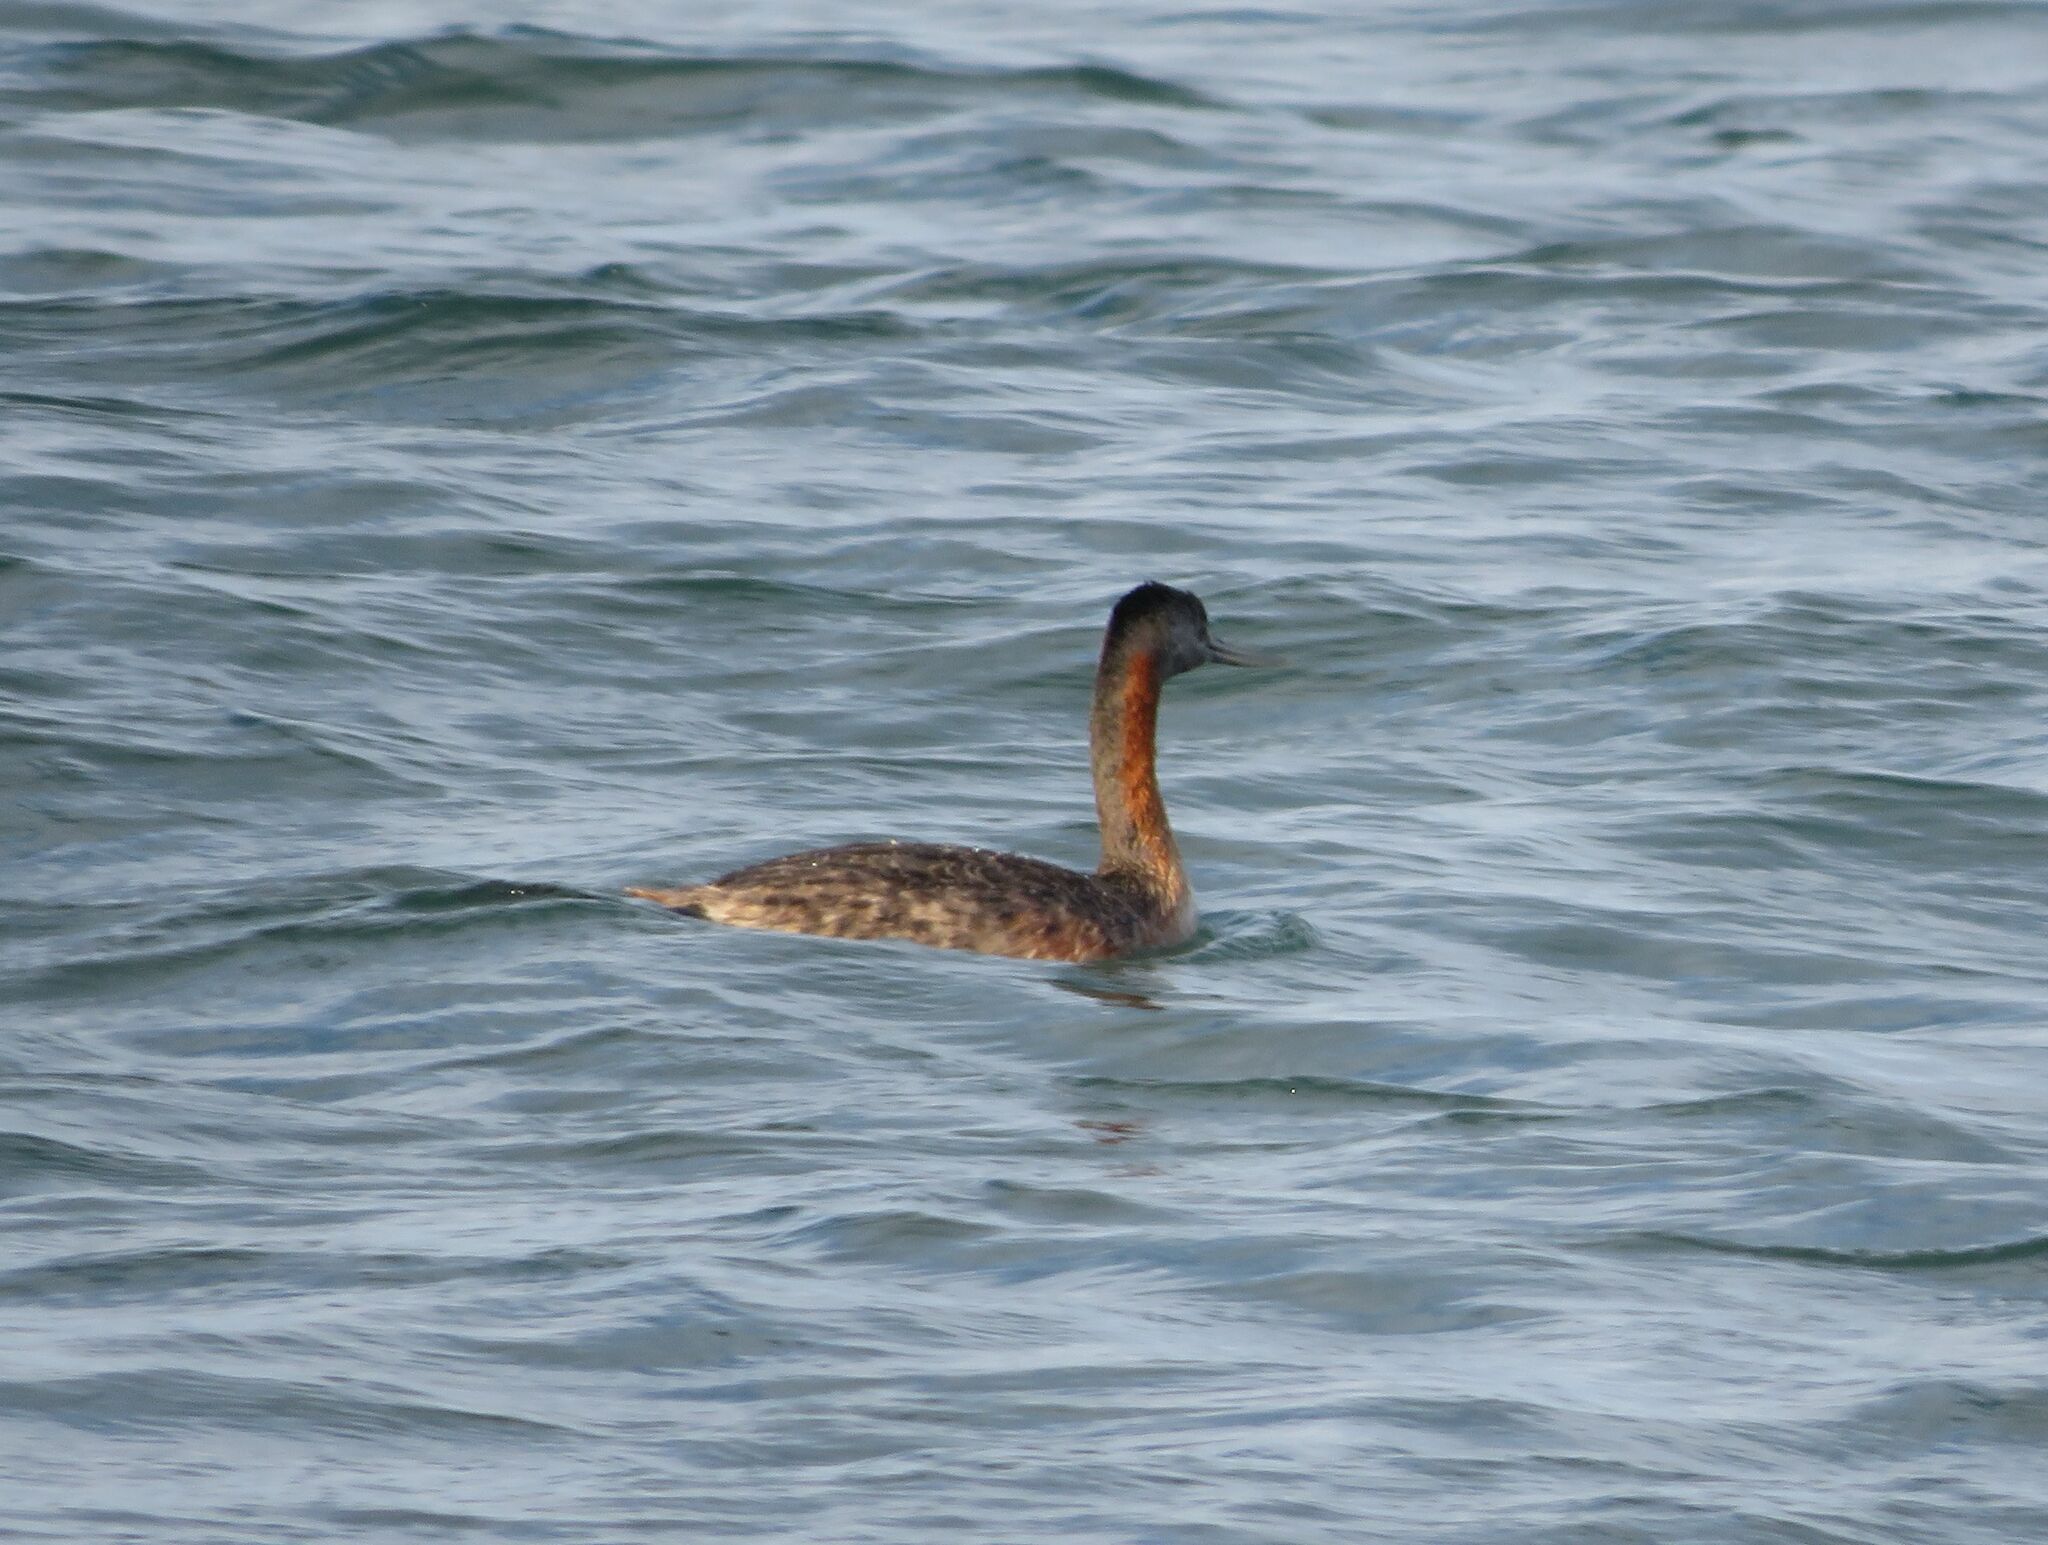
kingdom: Animalia
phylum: Chordata
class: Aves
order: Podicipediformes
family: Podicipedidae
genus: Podiceps
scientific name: Podiceps major
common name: Great grebe
